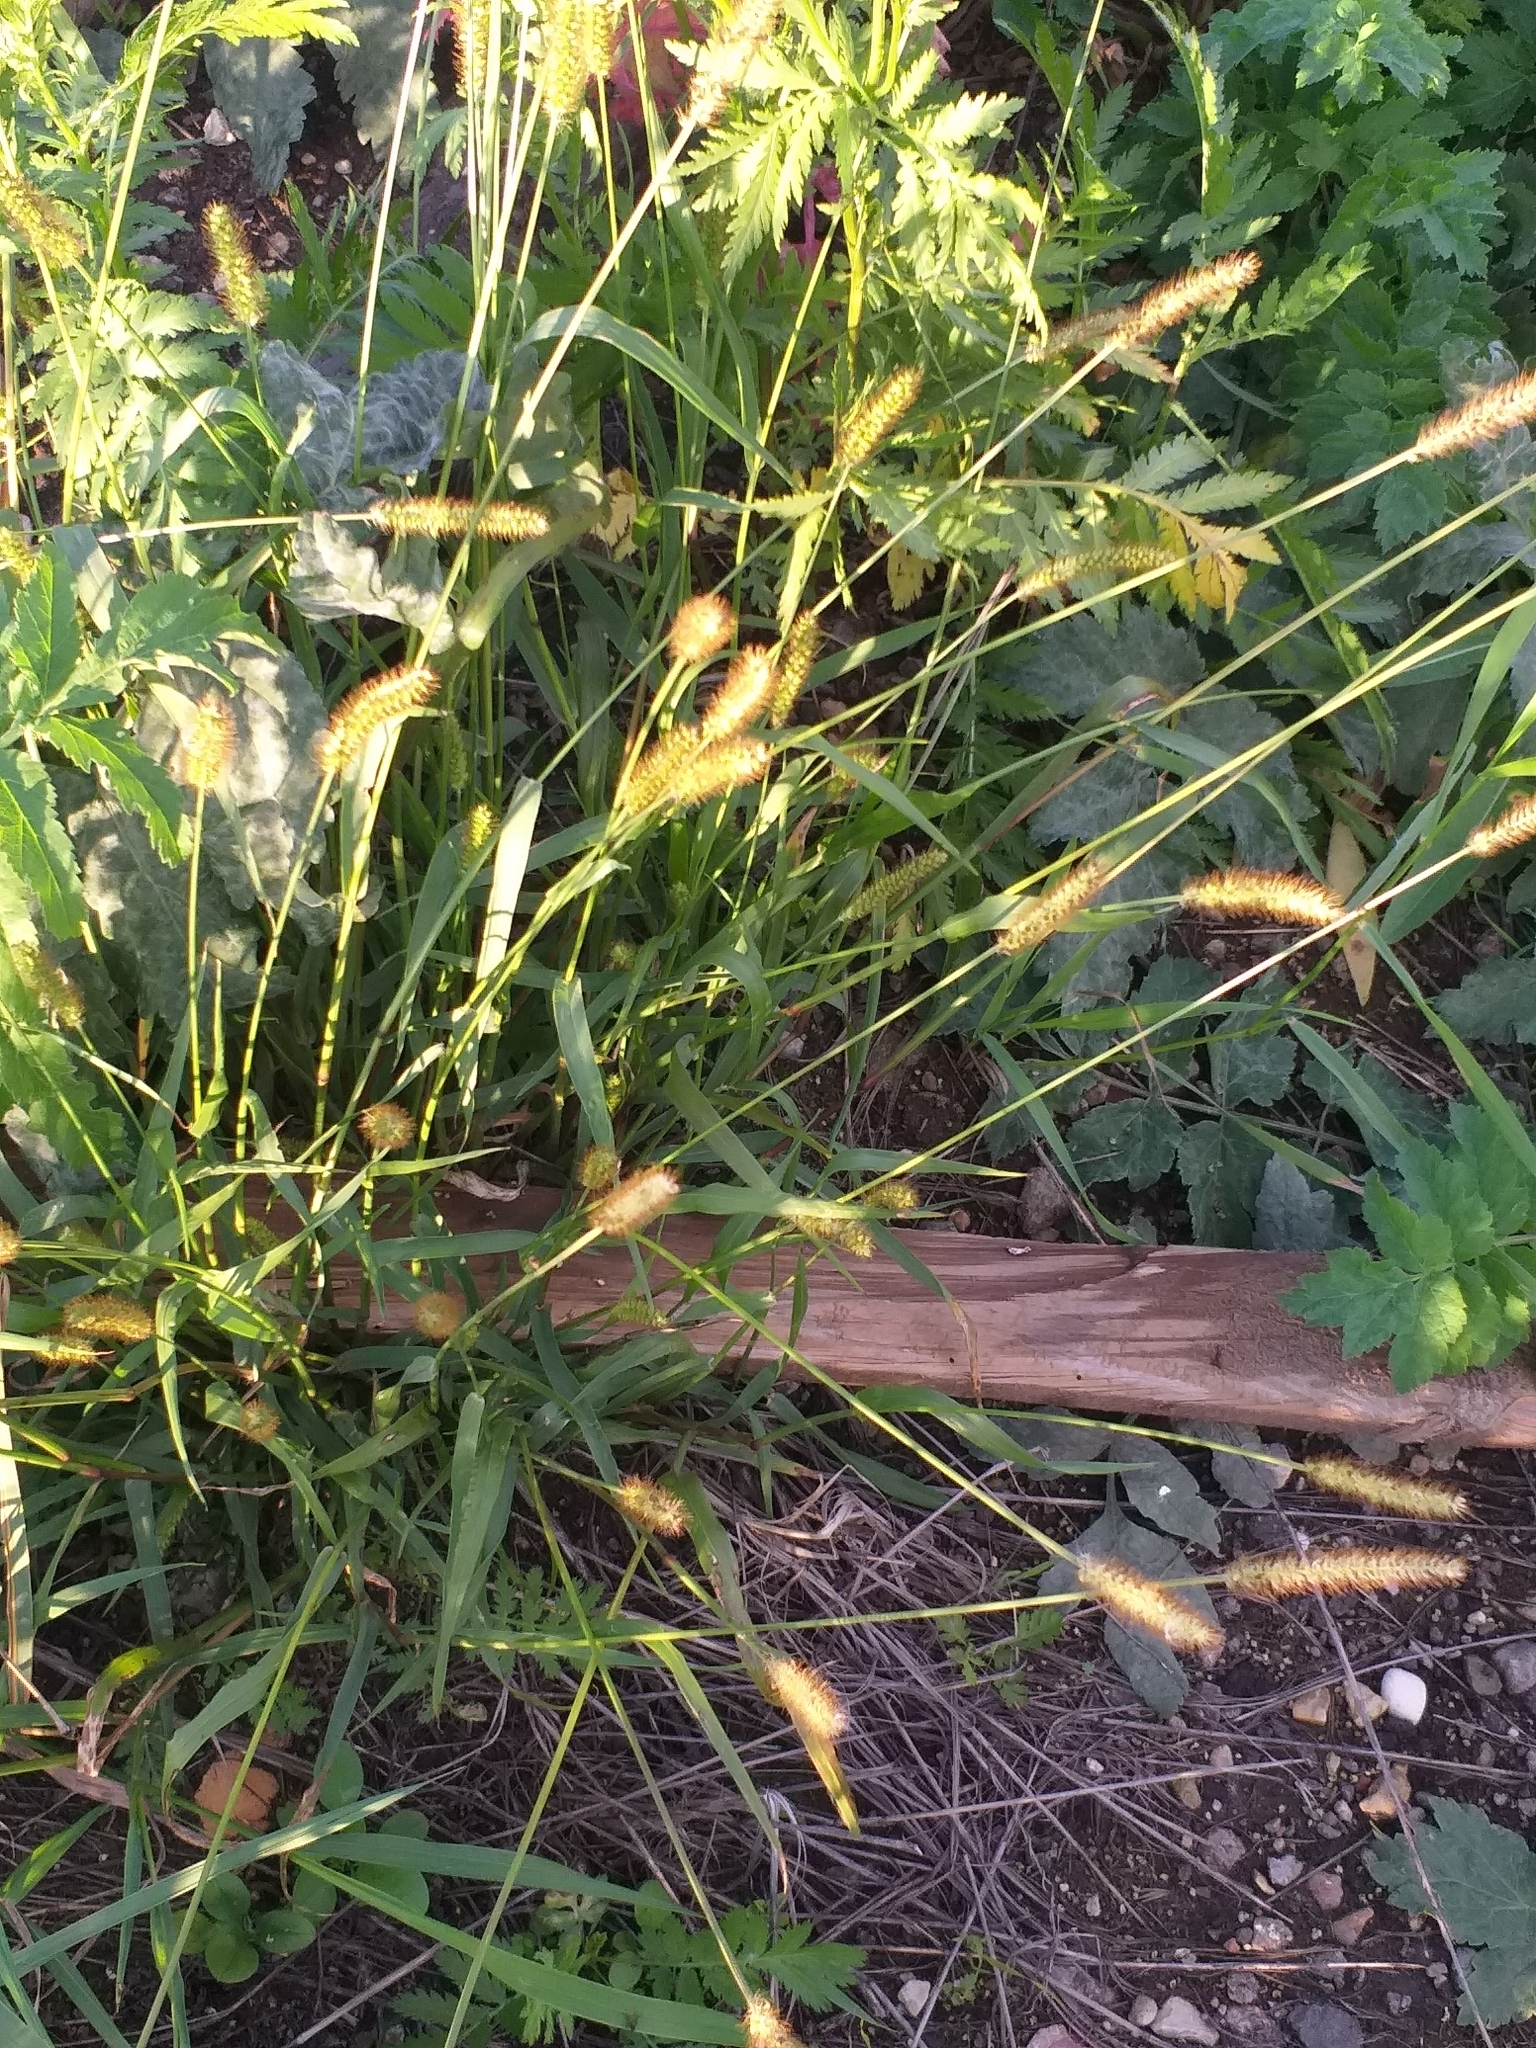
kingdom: Plantae
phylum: Tracheophyta
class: Liliopsida
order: Poales
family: Poaceae
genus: Setaria
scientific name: Setaria pumila
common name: Yellow bristle-grass
